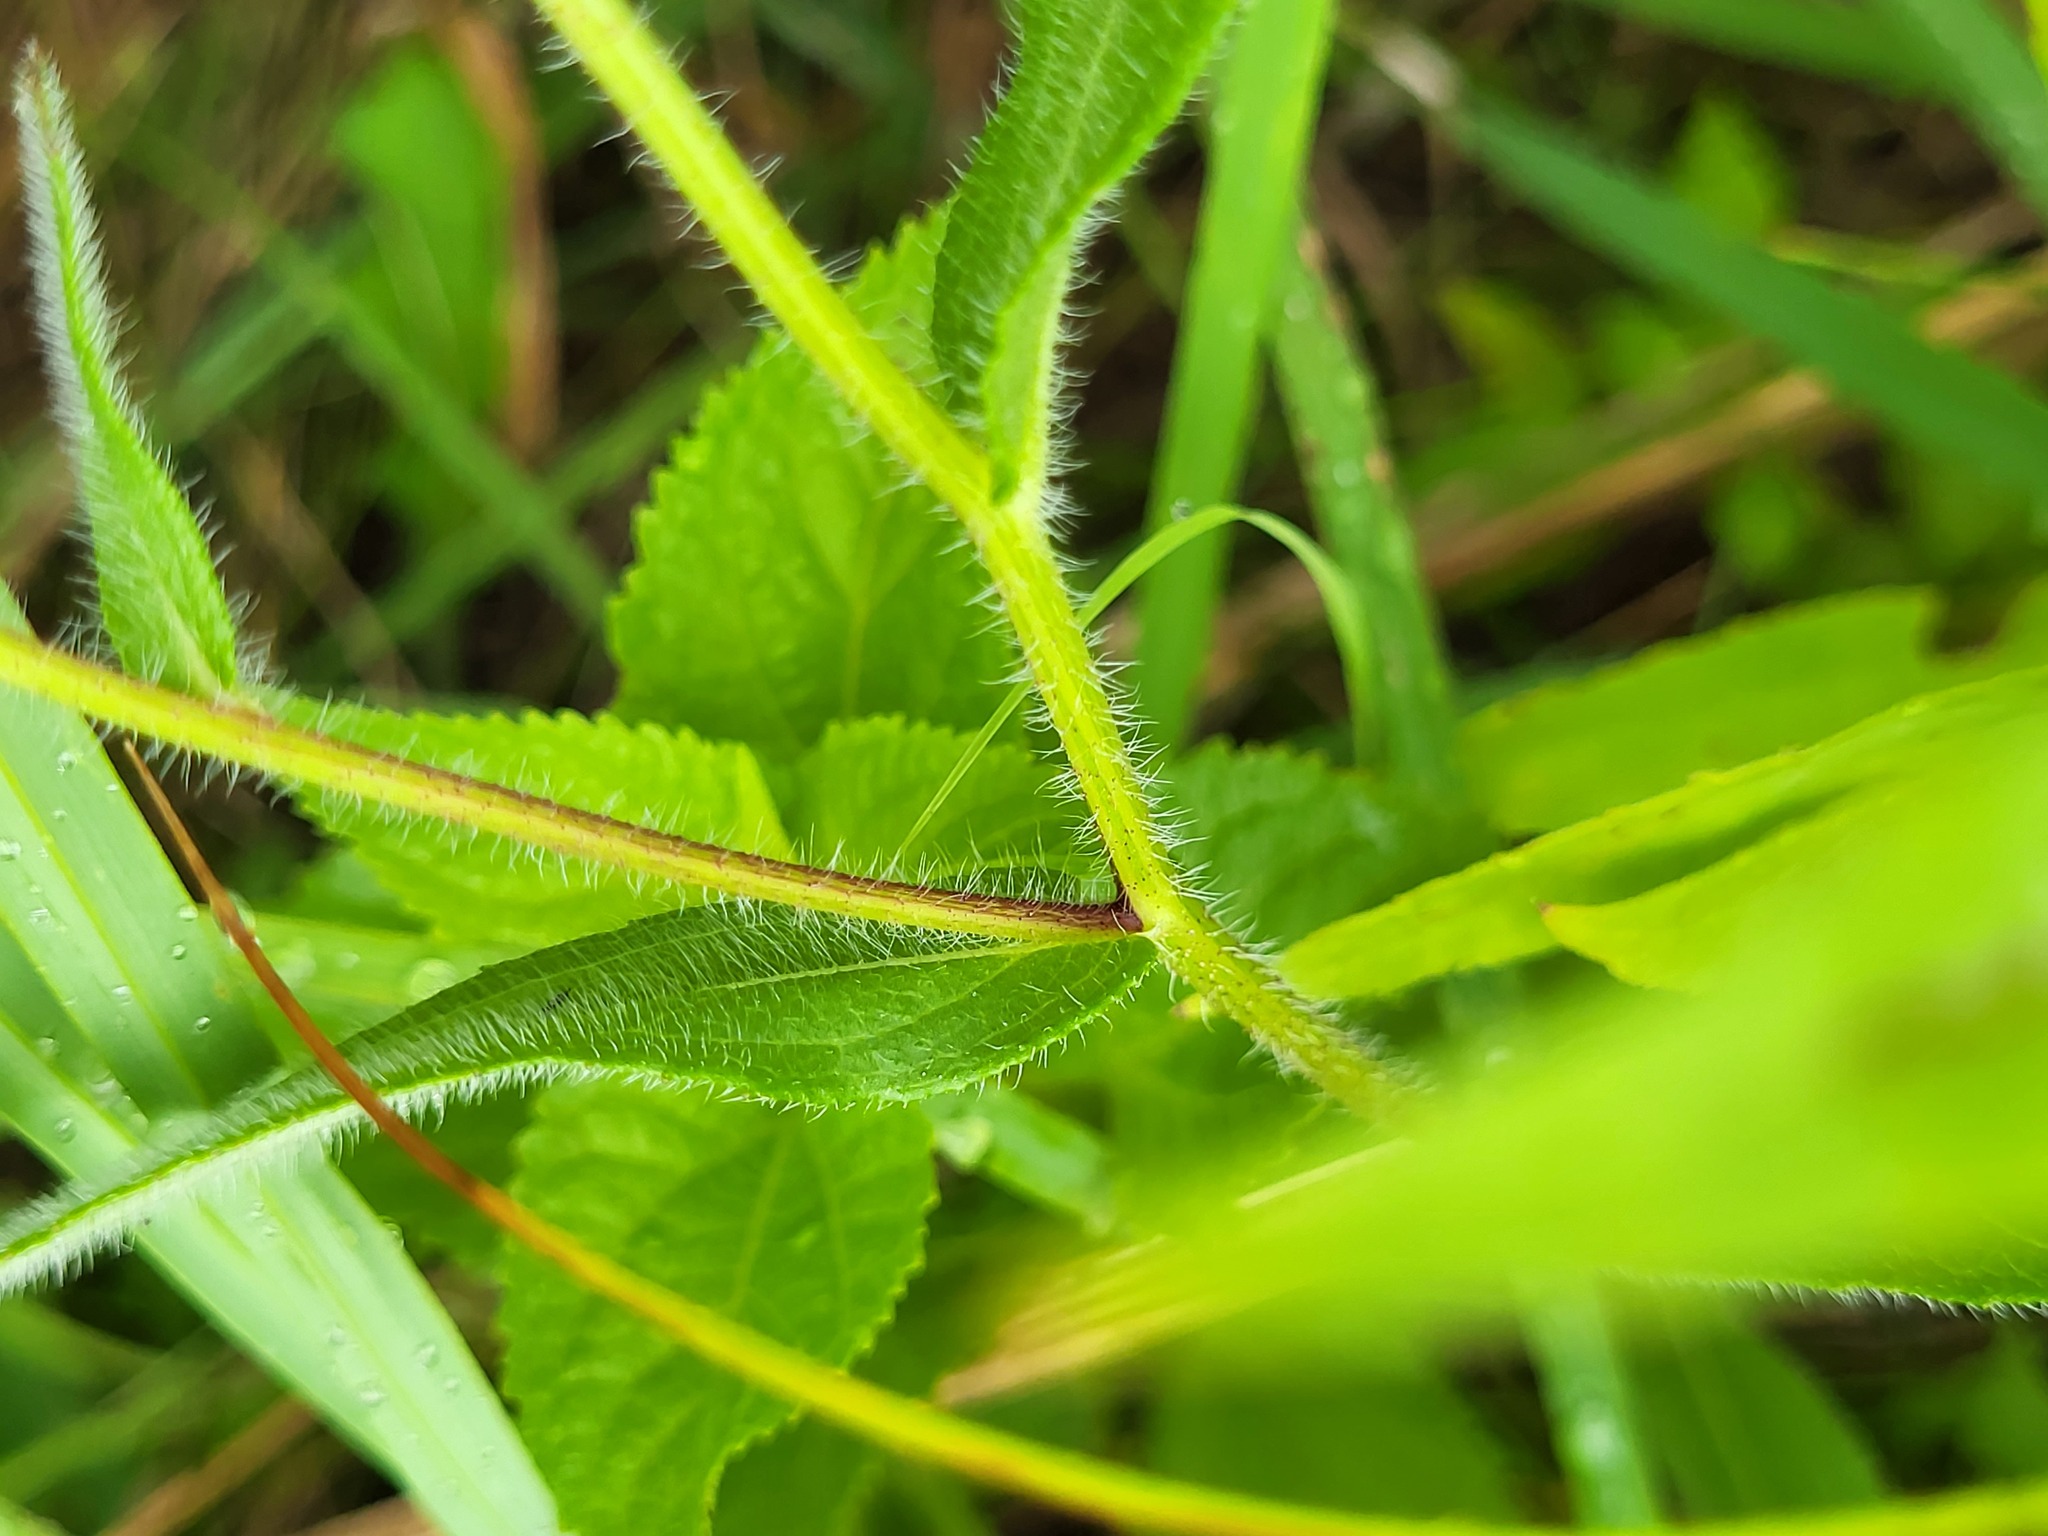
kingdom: Plantae
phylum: Tracheophyta
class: Magnoliopsida
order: Asterales
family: Asteraceae
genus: Rudbeckia
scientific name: Rudbeckia hirta
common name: Black-eyed-susan
